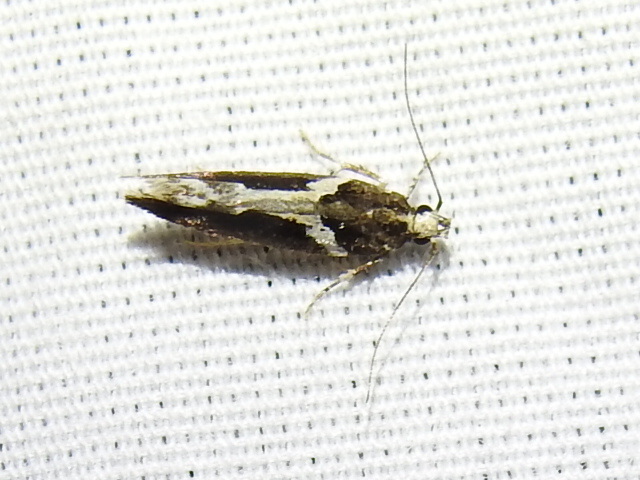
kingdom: Animalia
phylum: Arthropoda
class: Insecta
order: Lepidoptera
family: Gelechiidae
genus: Telphusa
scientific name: Telphusa longifasciella
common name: Y-backed telphusa
